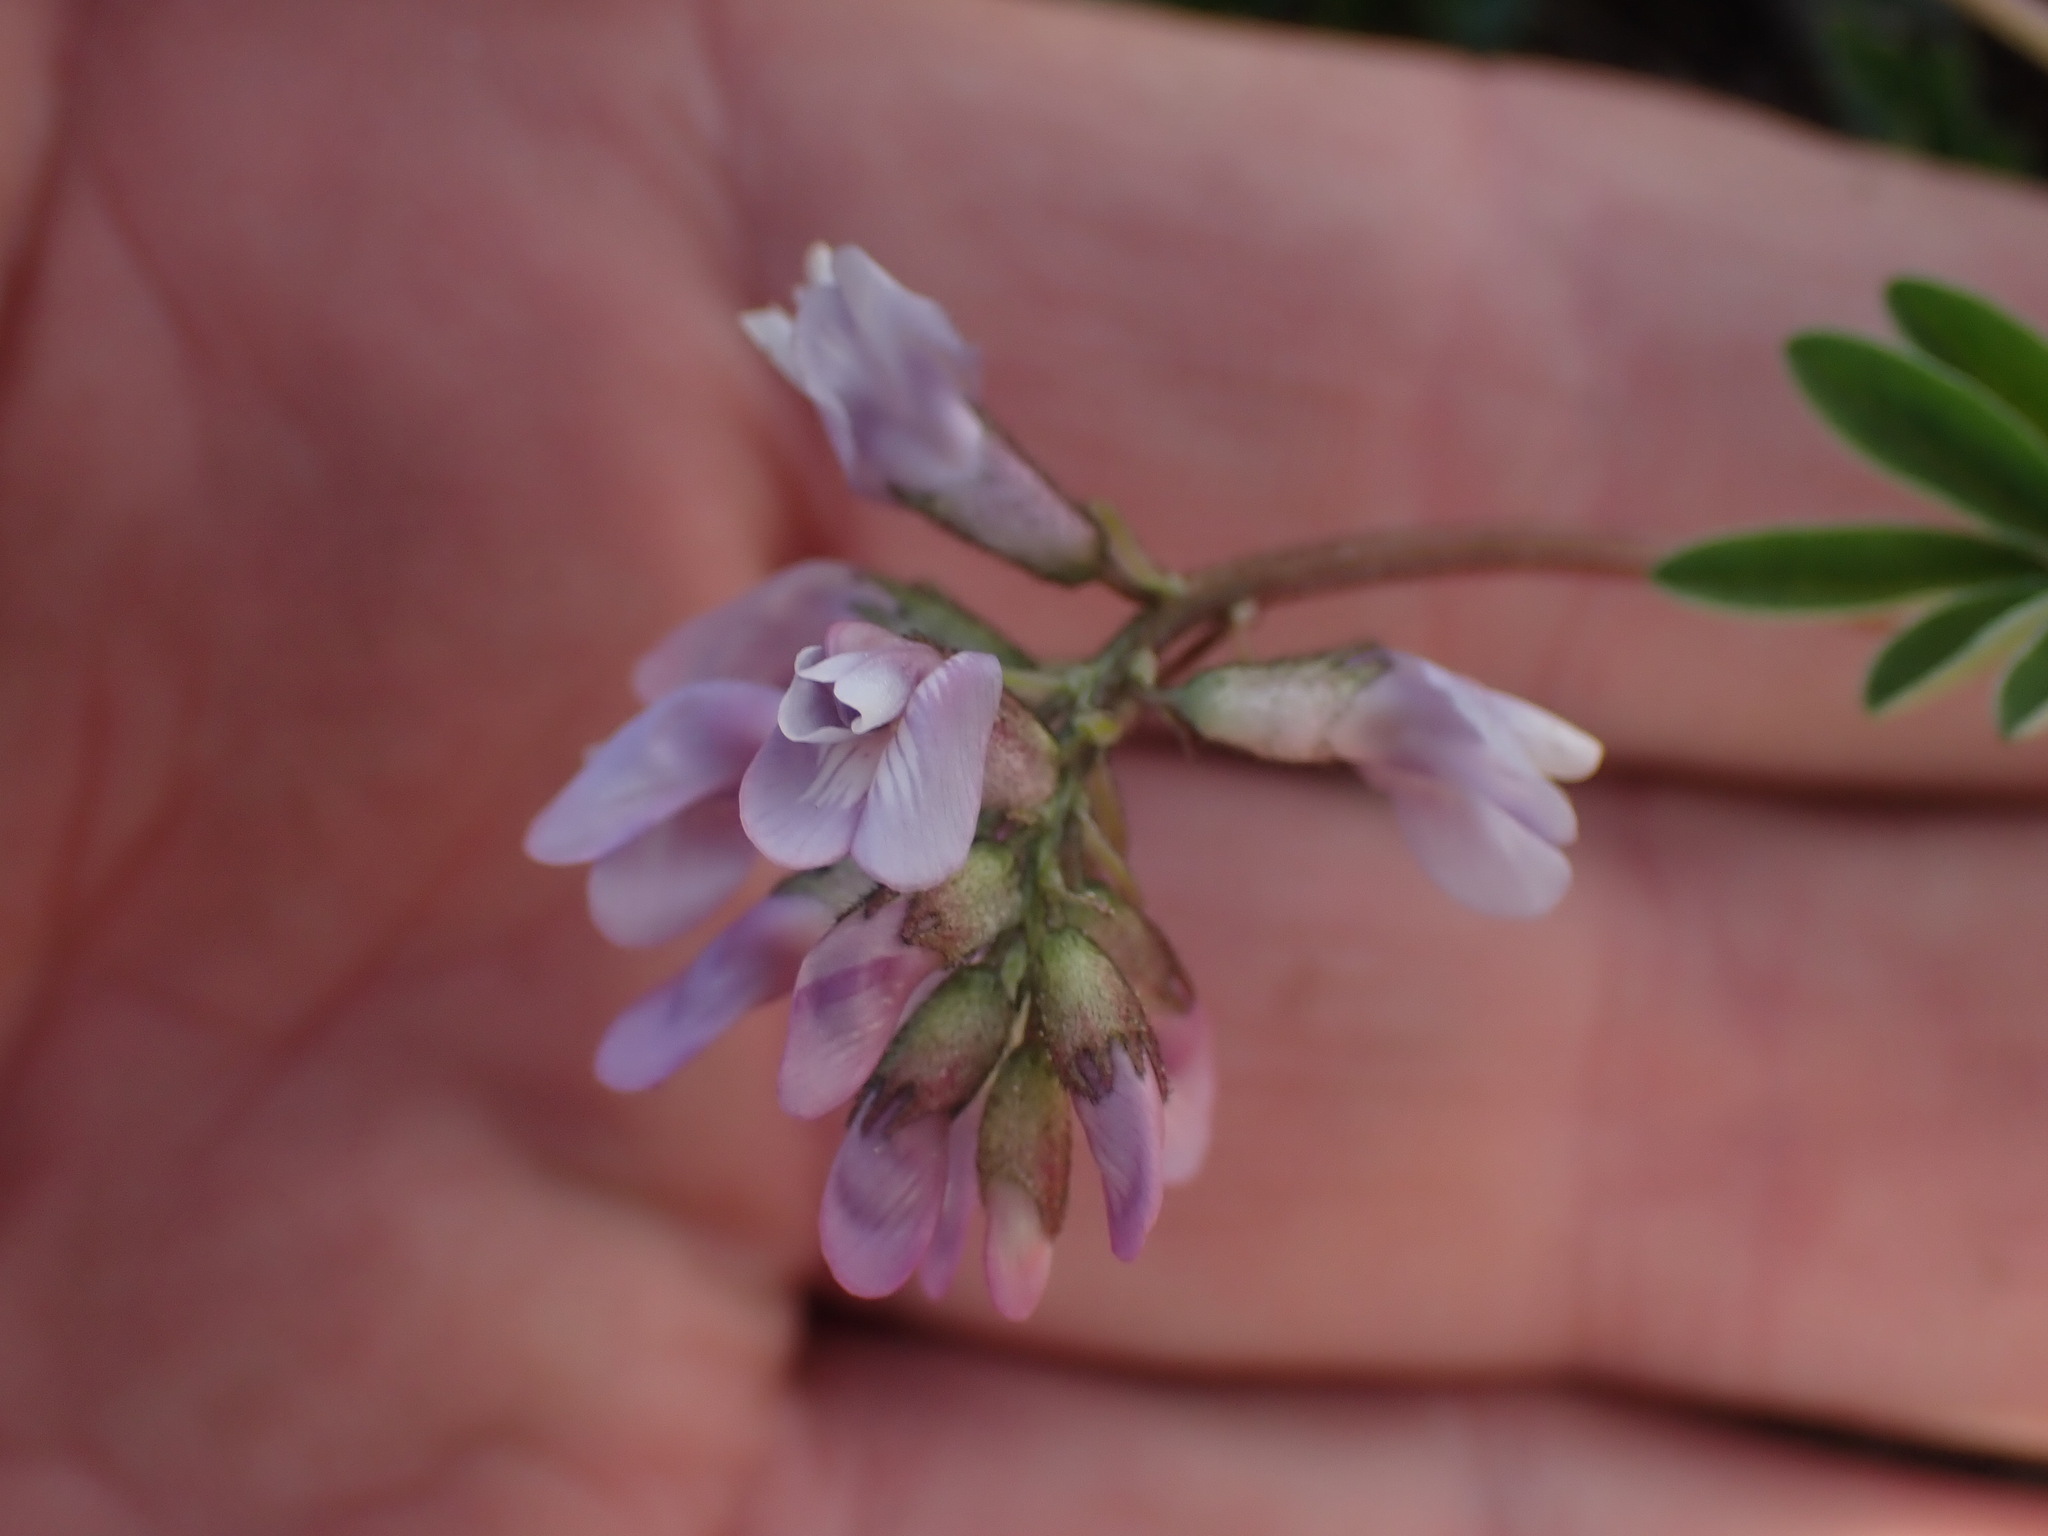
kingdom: Plantae
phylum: Tracheophyta
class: Magnoliopsida
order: Fabales
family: Fabaceae
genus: Astragalus
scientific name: Astragalus robbinsii
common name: Robbins' milk-vetch
